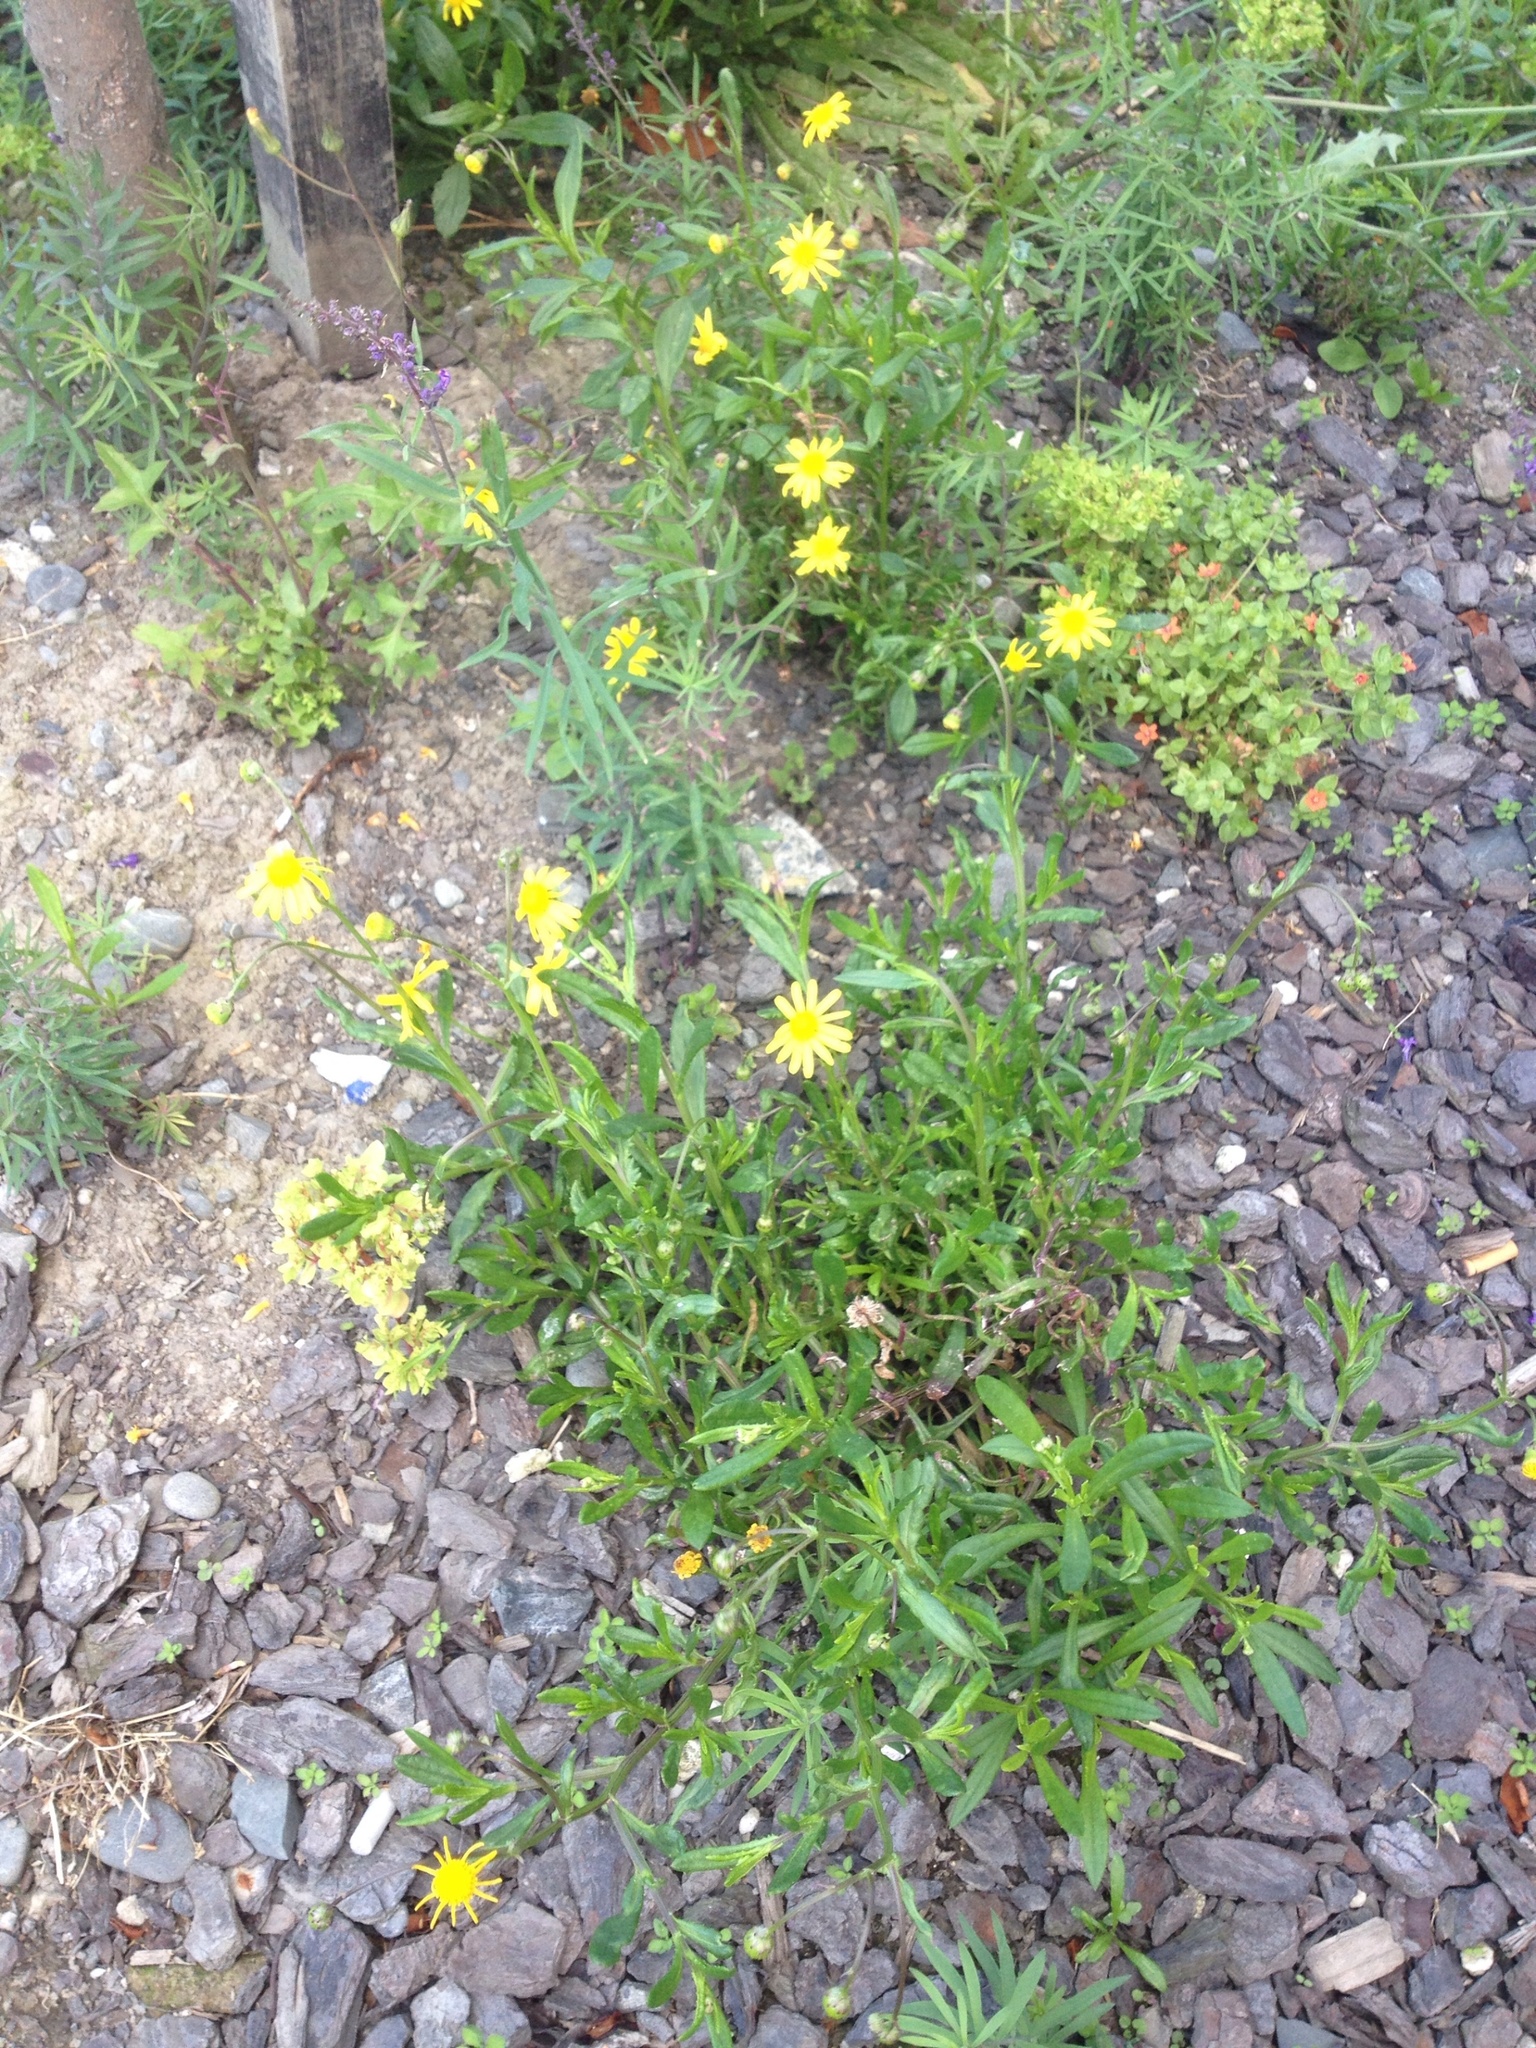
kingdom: Plantae
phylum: Tracheophyta
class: Magnoliopsida
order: Asterales
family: Asteraceae
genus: Senecio
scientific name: Senecio skirrhodon
